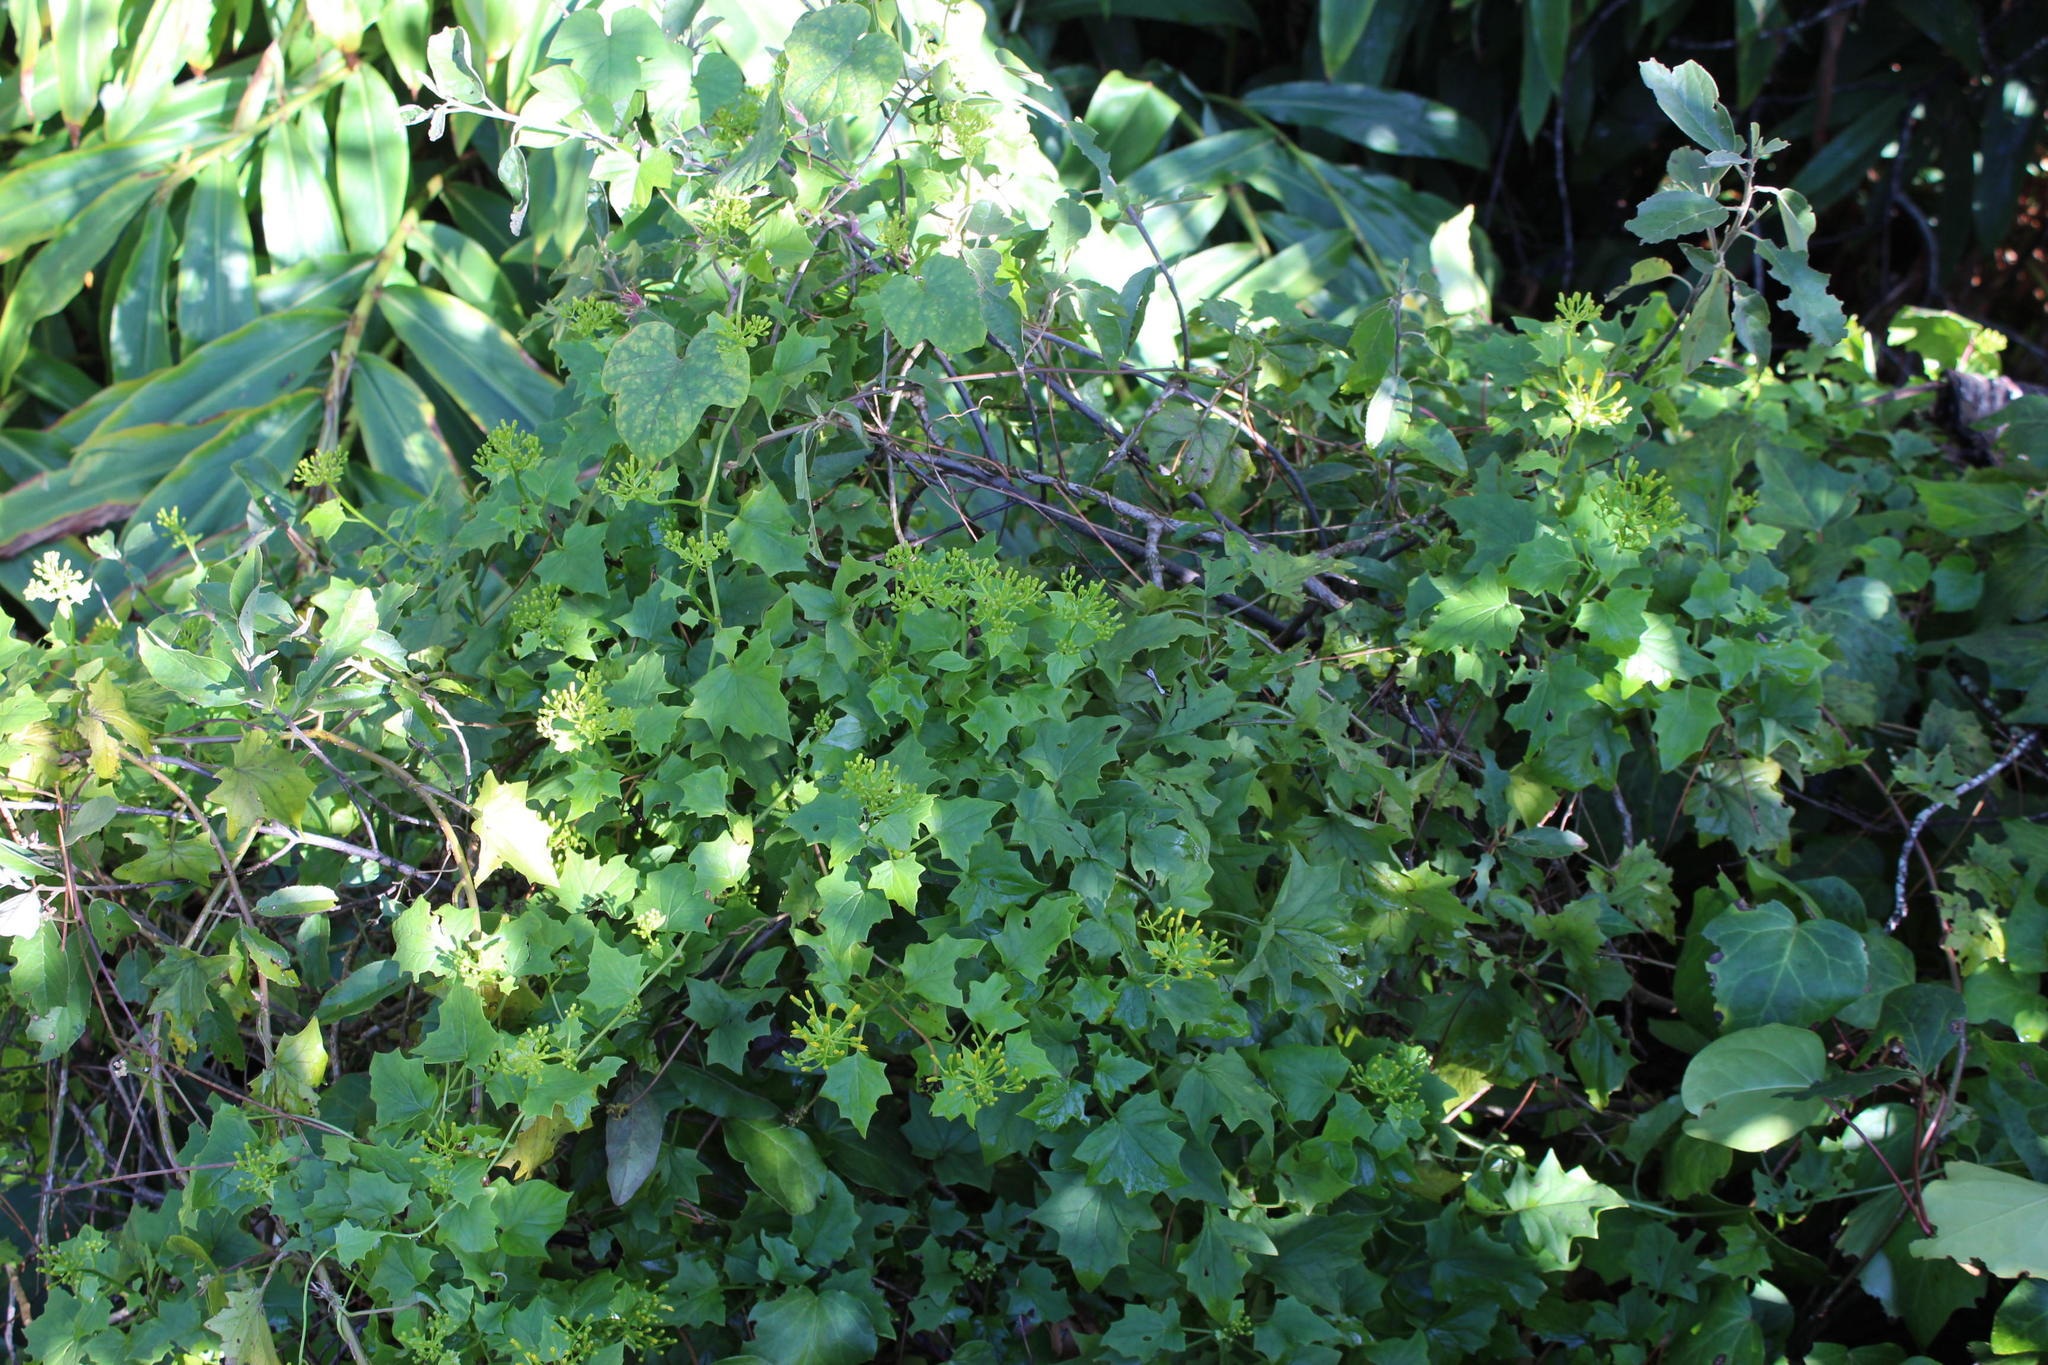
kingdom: Plantae
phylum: Tracheophyta
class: Magnoliopsida
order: Asterales
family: Asteraceae
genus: Senecio
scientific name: Senecio tamoides
